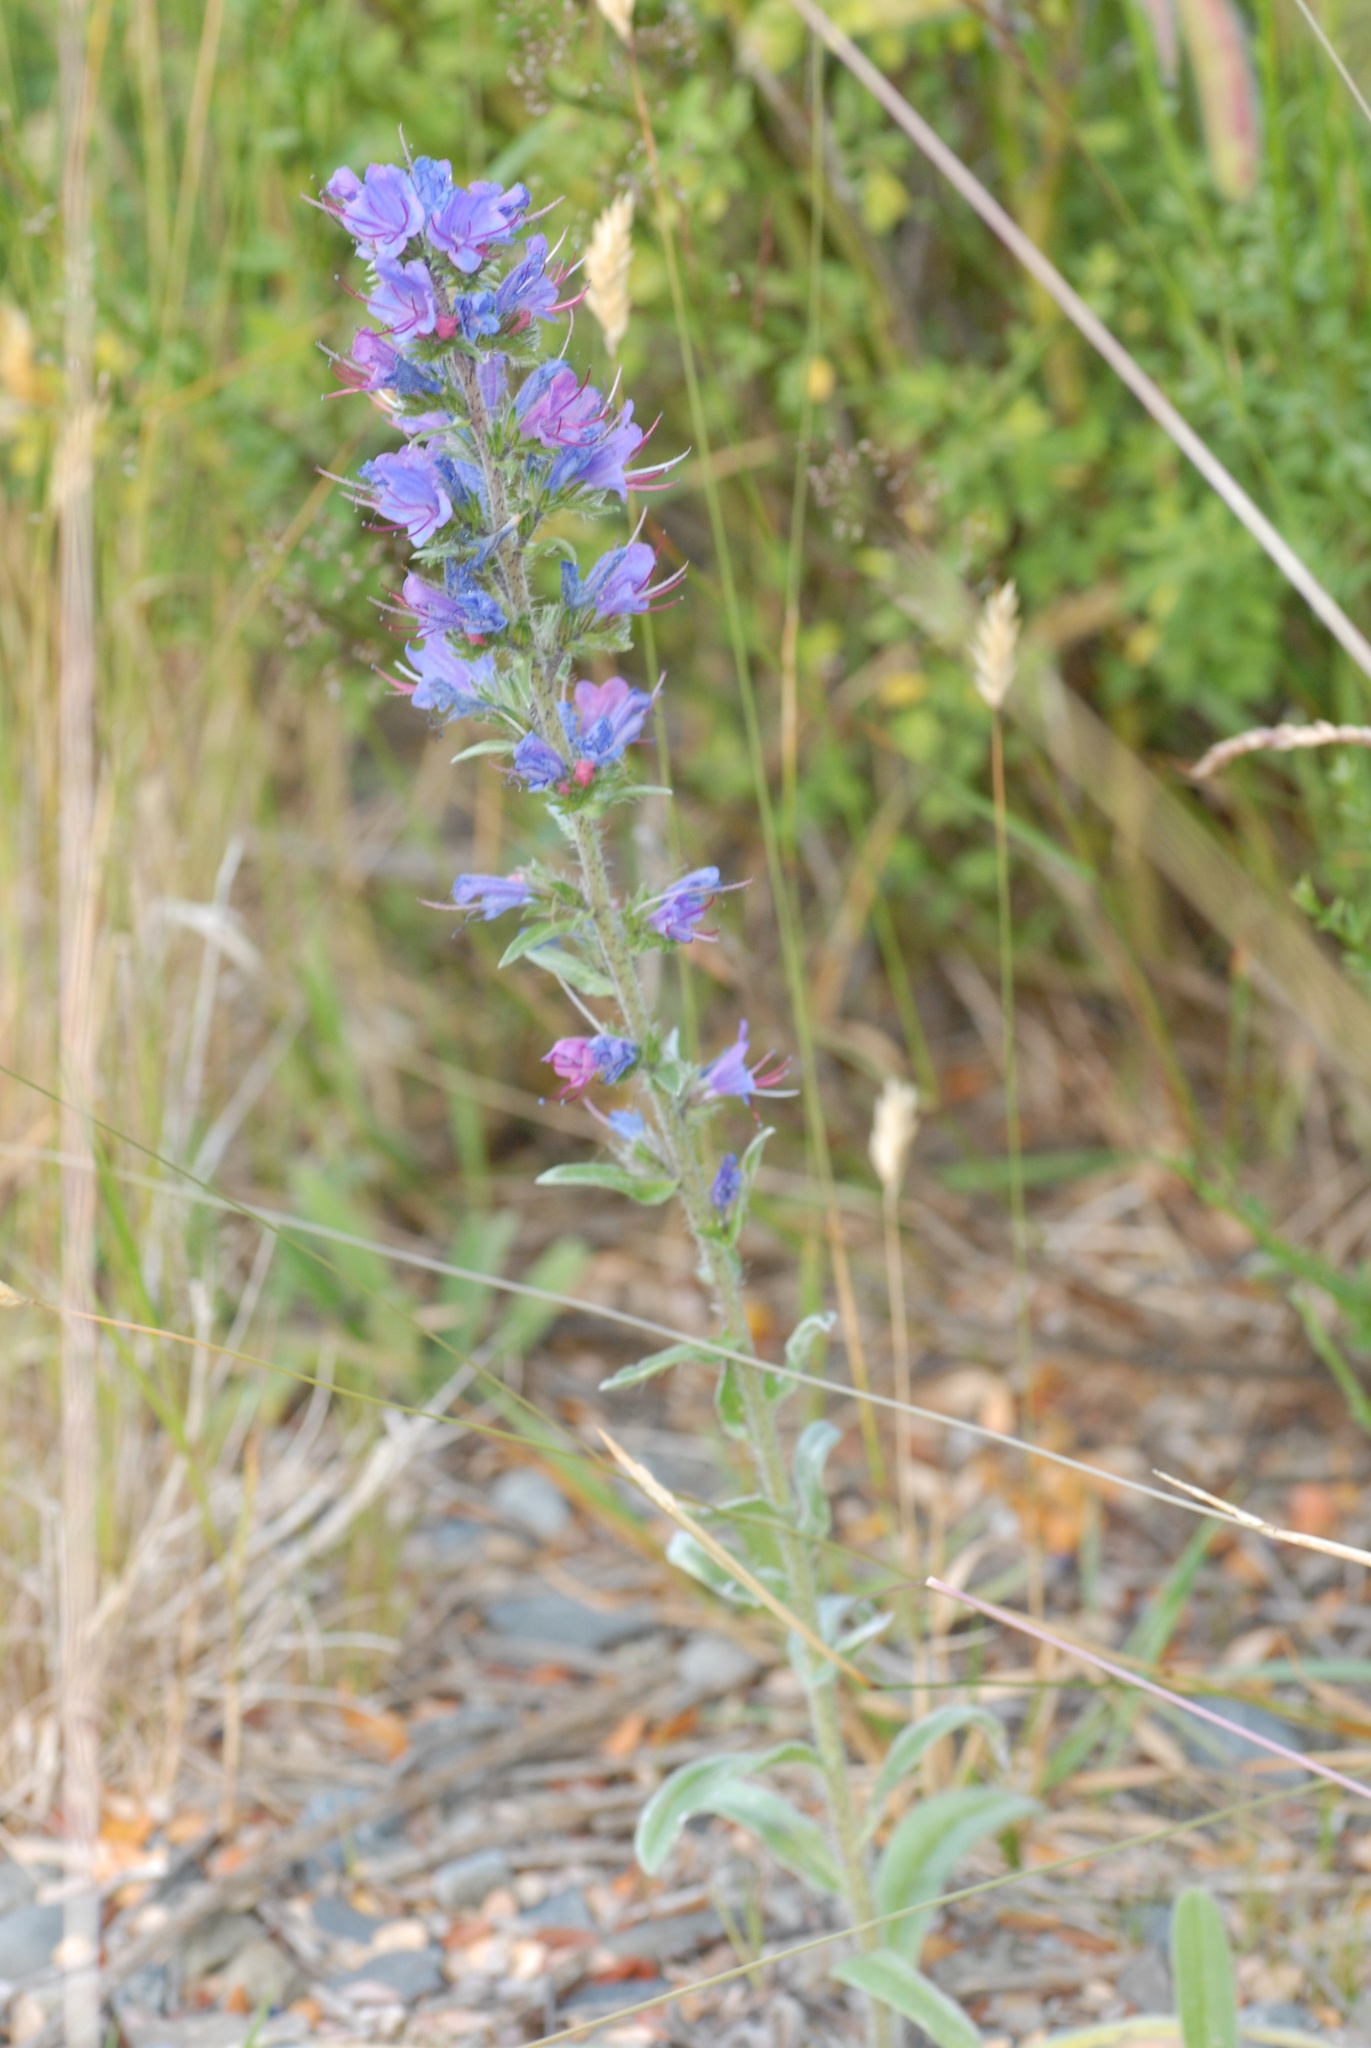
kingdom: Plantae
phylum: Tracheophyta
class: Magnoliopsida
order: Boraginales
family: Boraginaceae
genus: Echium
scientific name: Echium vulgare
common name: Common viper's bugloss
